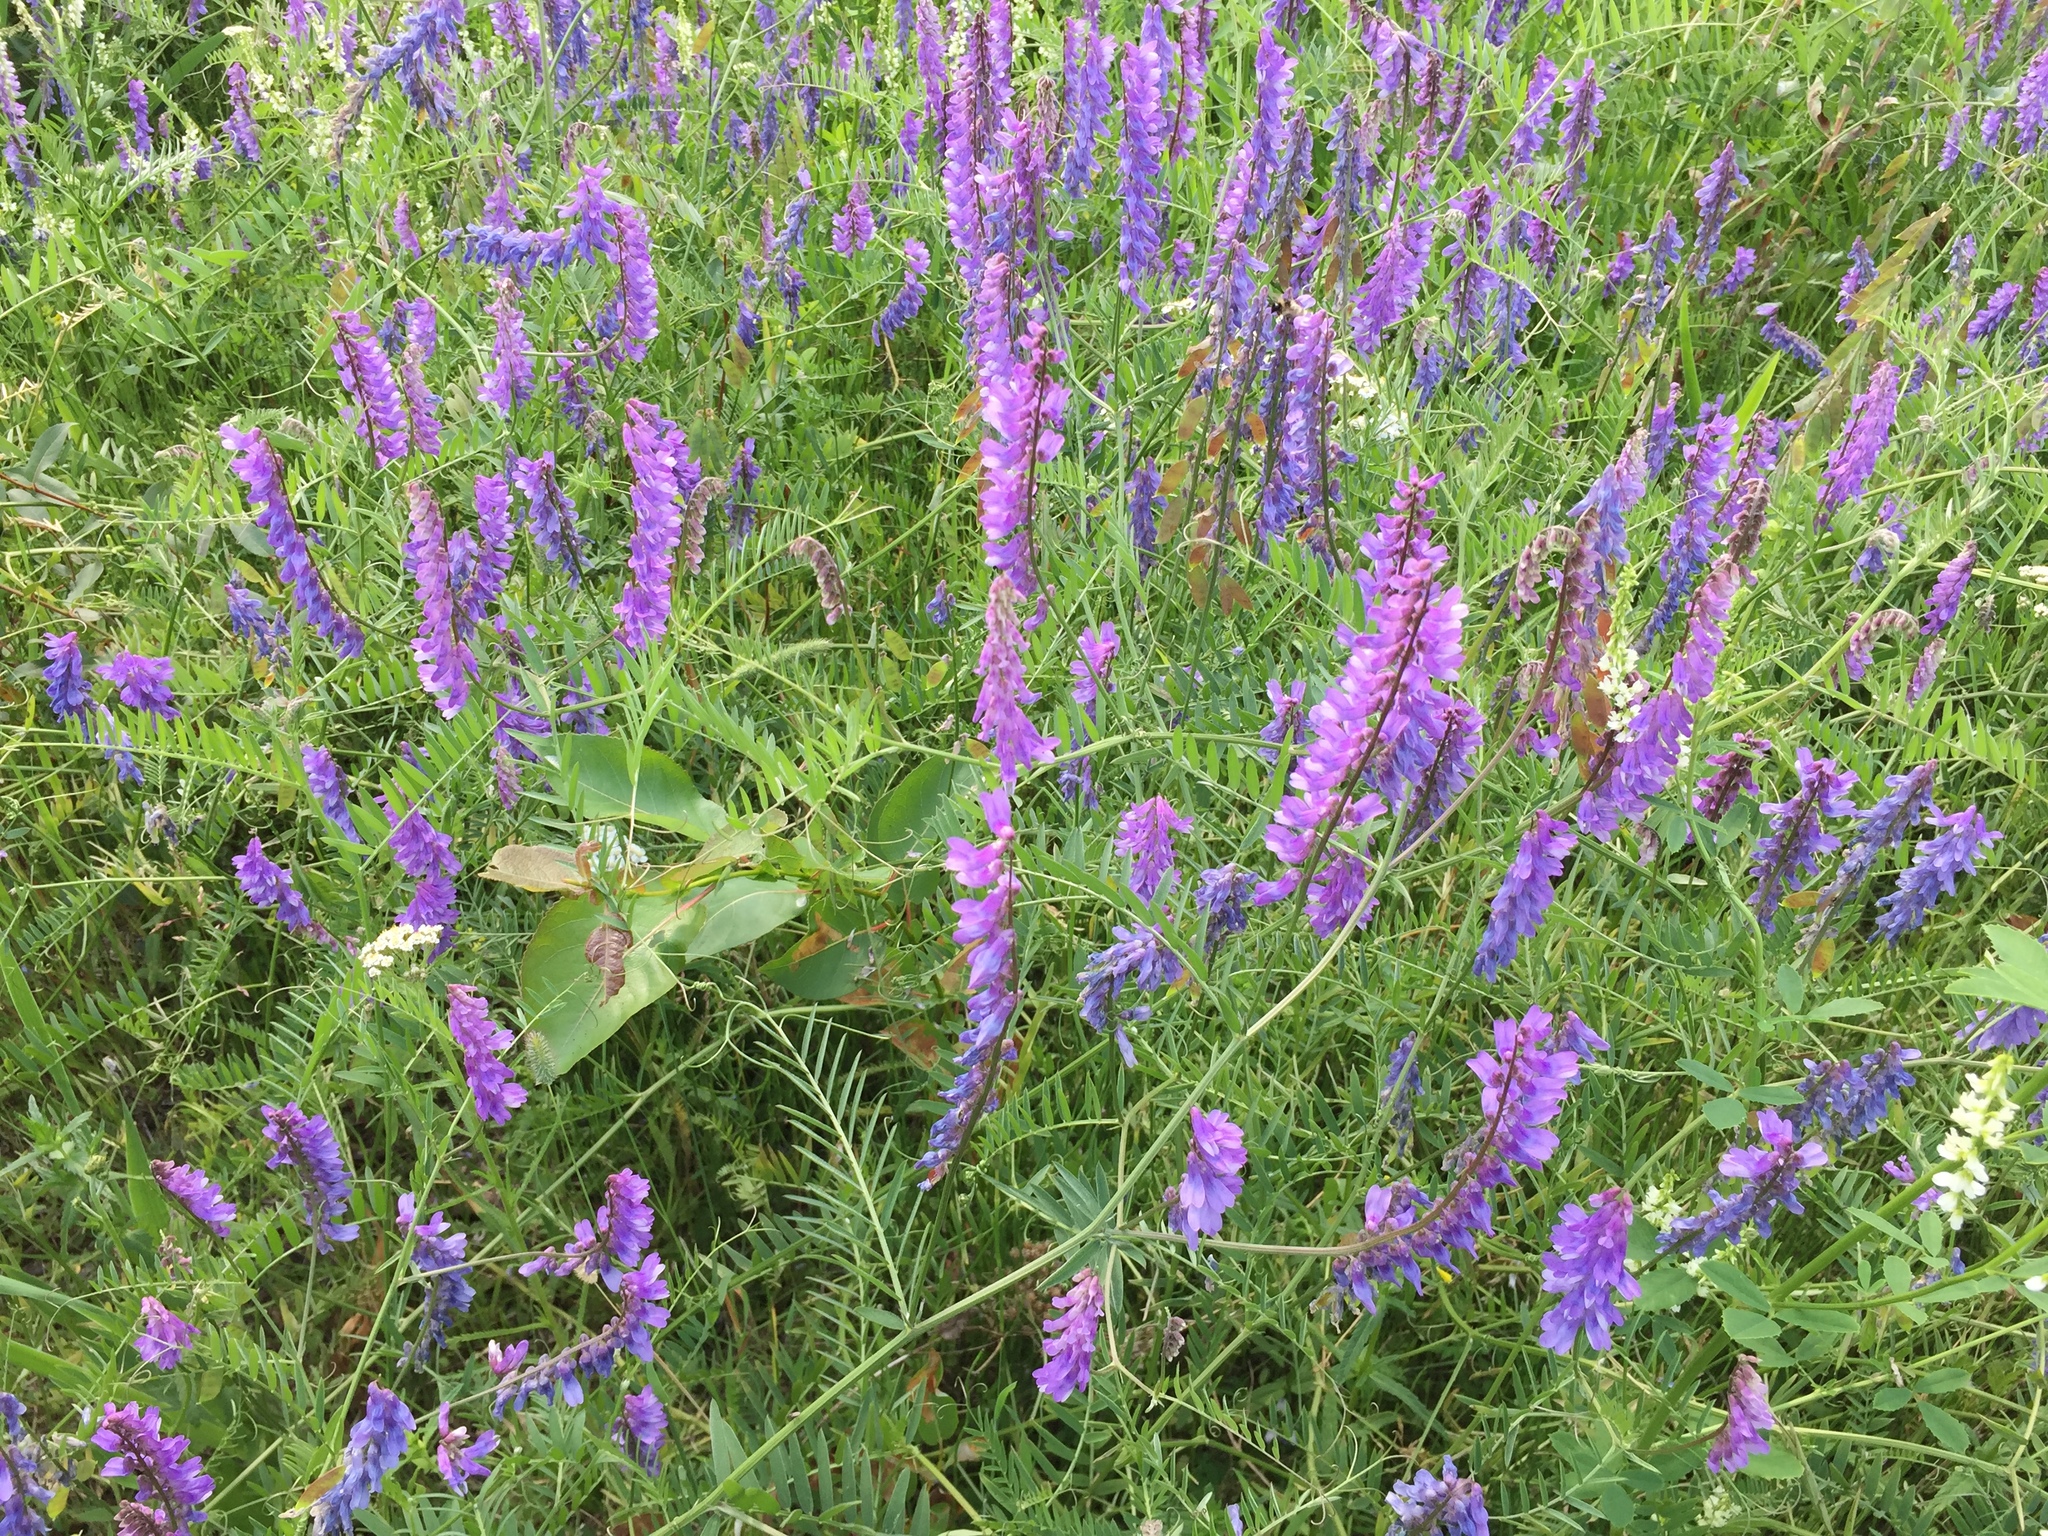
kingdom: Plantae
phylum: Tracheophyta
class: Magnoliopsida
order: Fabales
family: Fabaceae
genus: Vicia
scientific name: Vicia cracca
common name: Bird vetch
